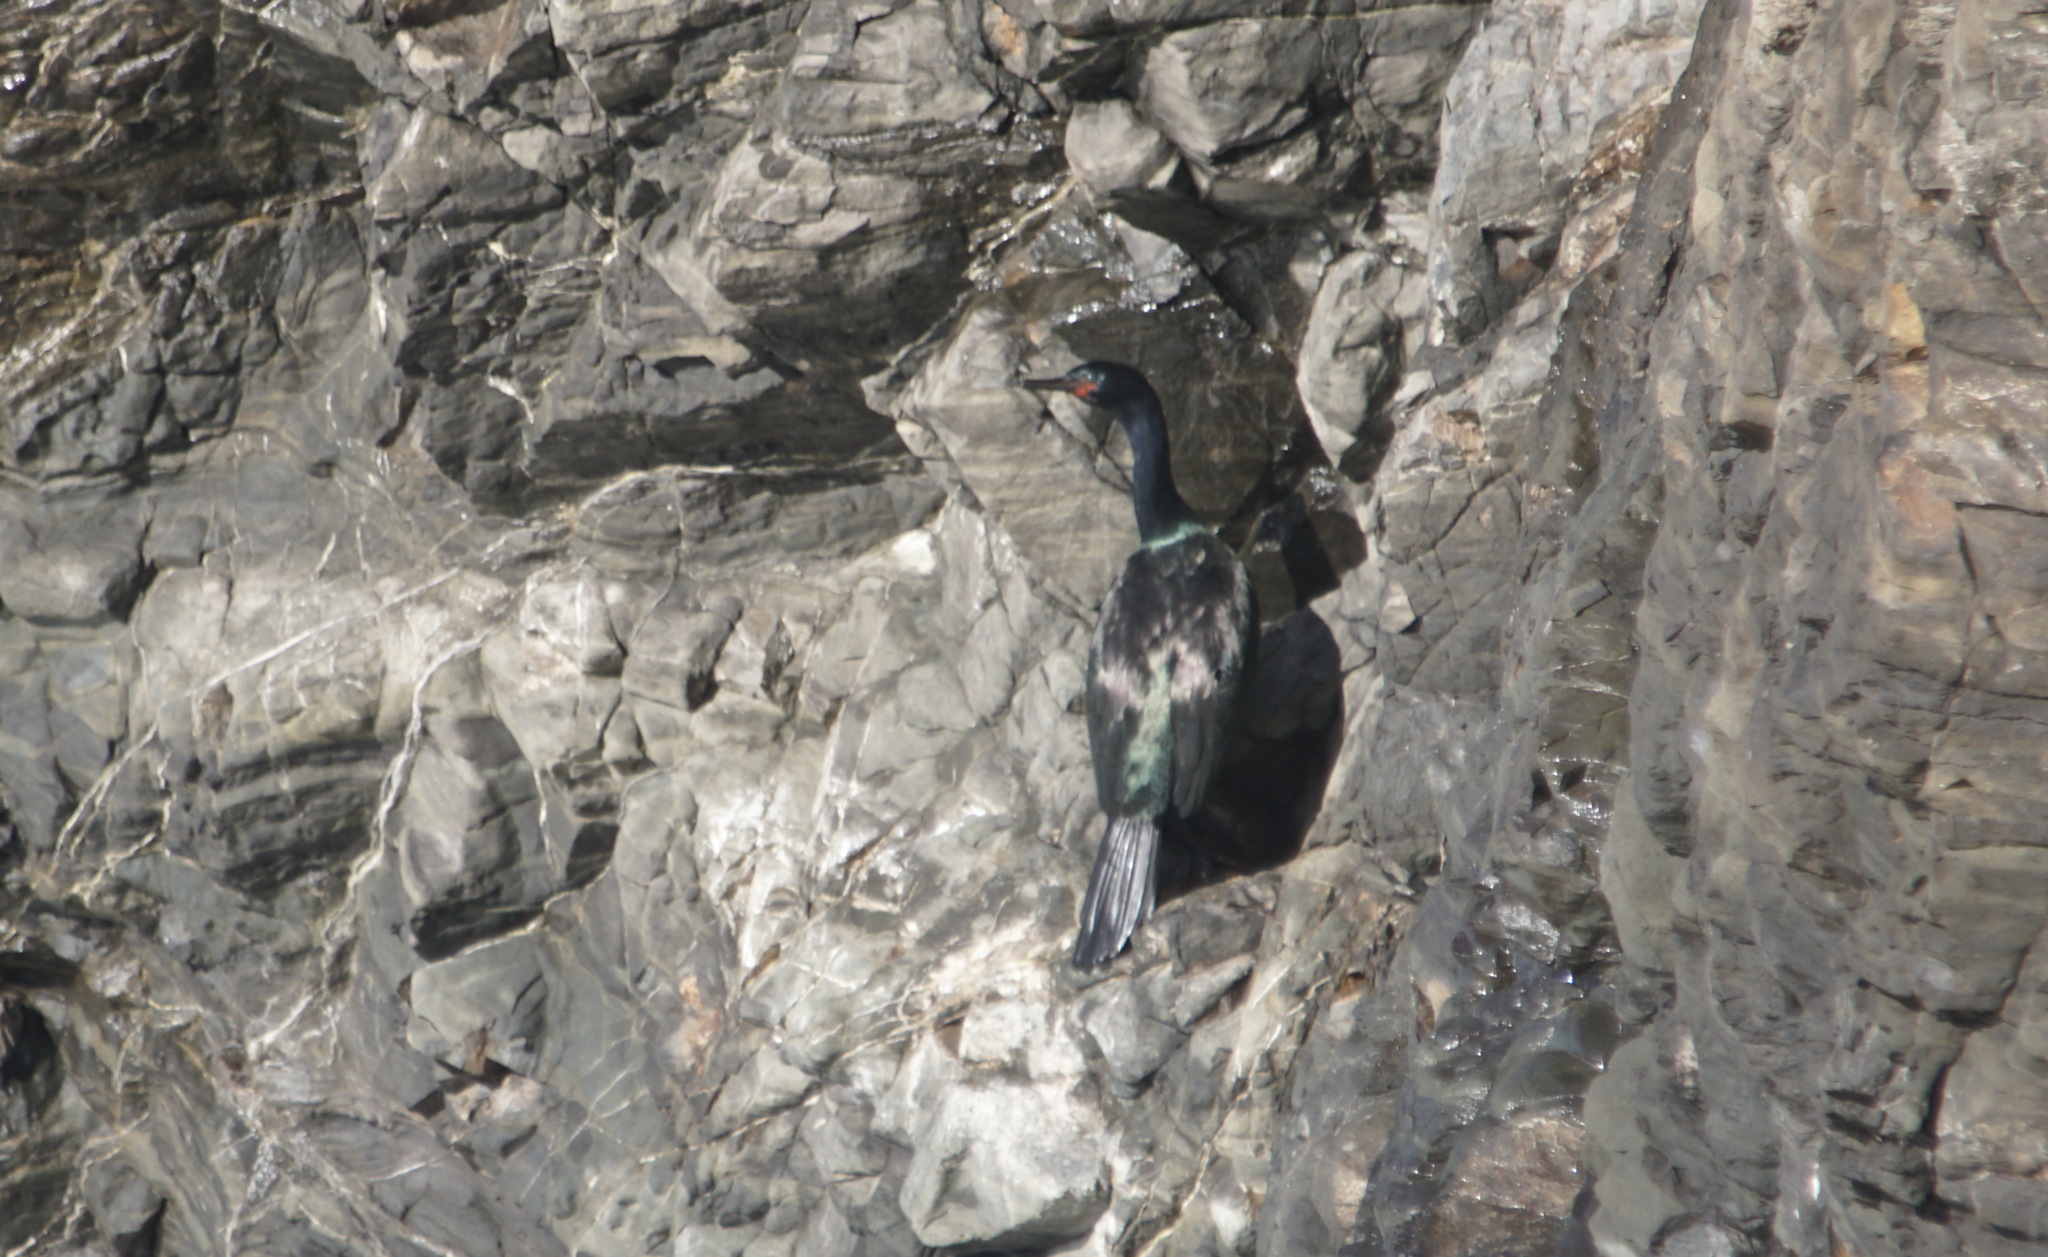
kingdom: Animalia
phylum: Chordata
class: Aves
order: Suliformes
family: Phalacrocoracidae
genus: Phalacrocorax
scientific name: Phalacrocorax pelagicus
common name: Pelagic cormorant
